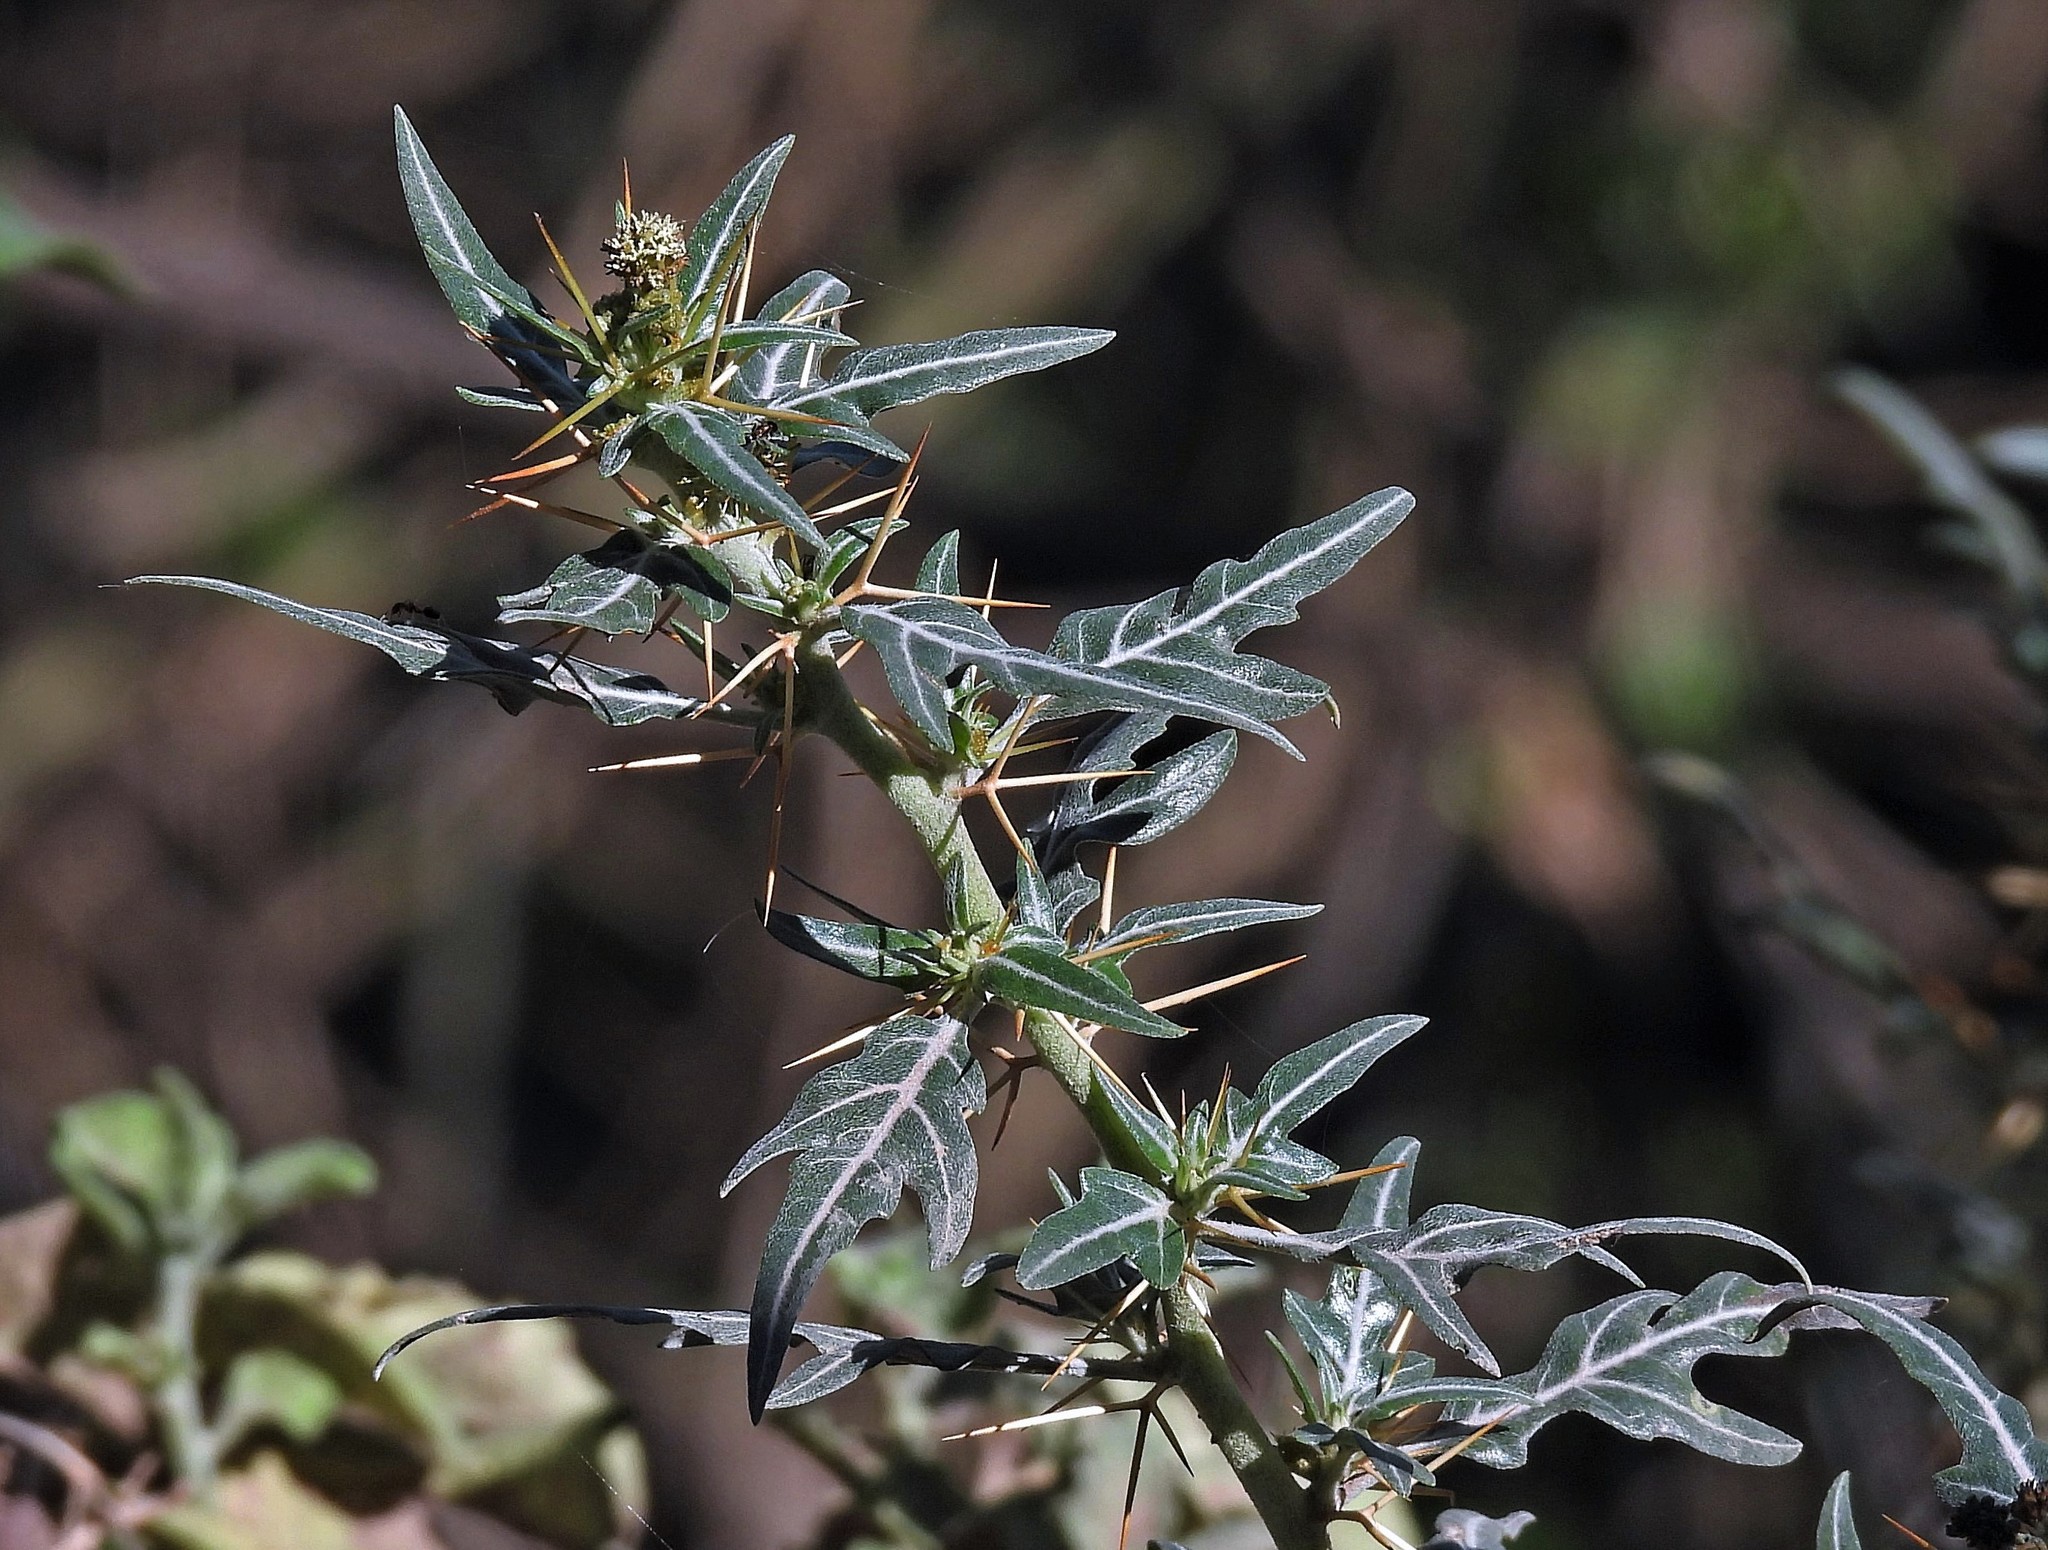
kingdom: Plantae
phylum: Tracheophyta
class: Magnoliopsida
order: Asterales
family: Asteraceae
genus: Xanthium
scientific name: Xanthium spinosum
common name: Spiny cocklebur
